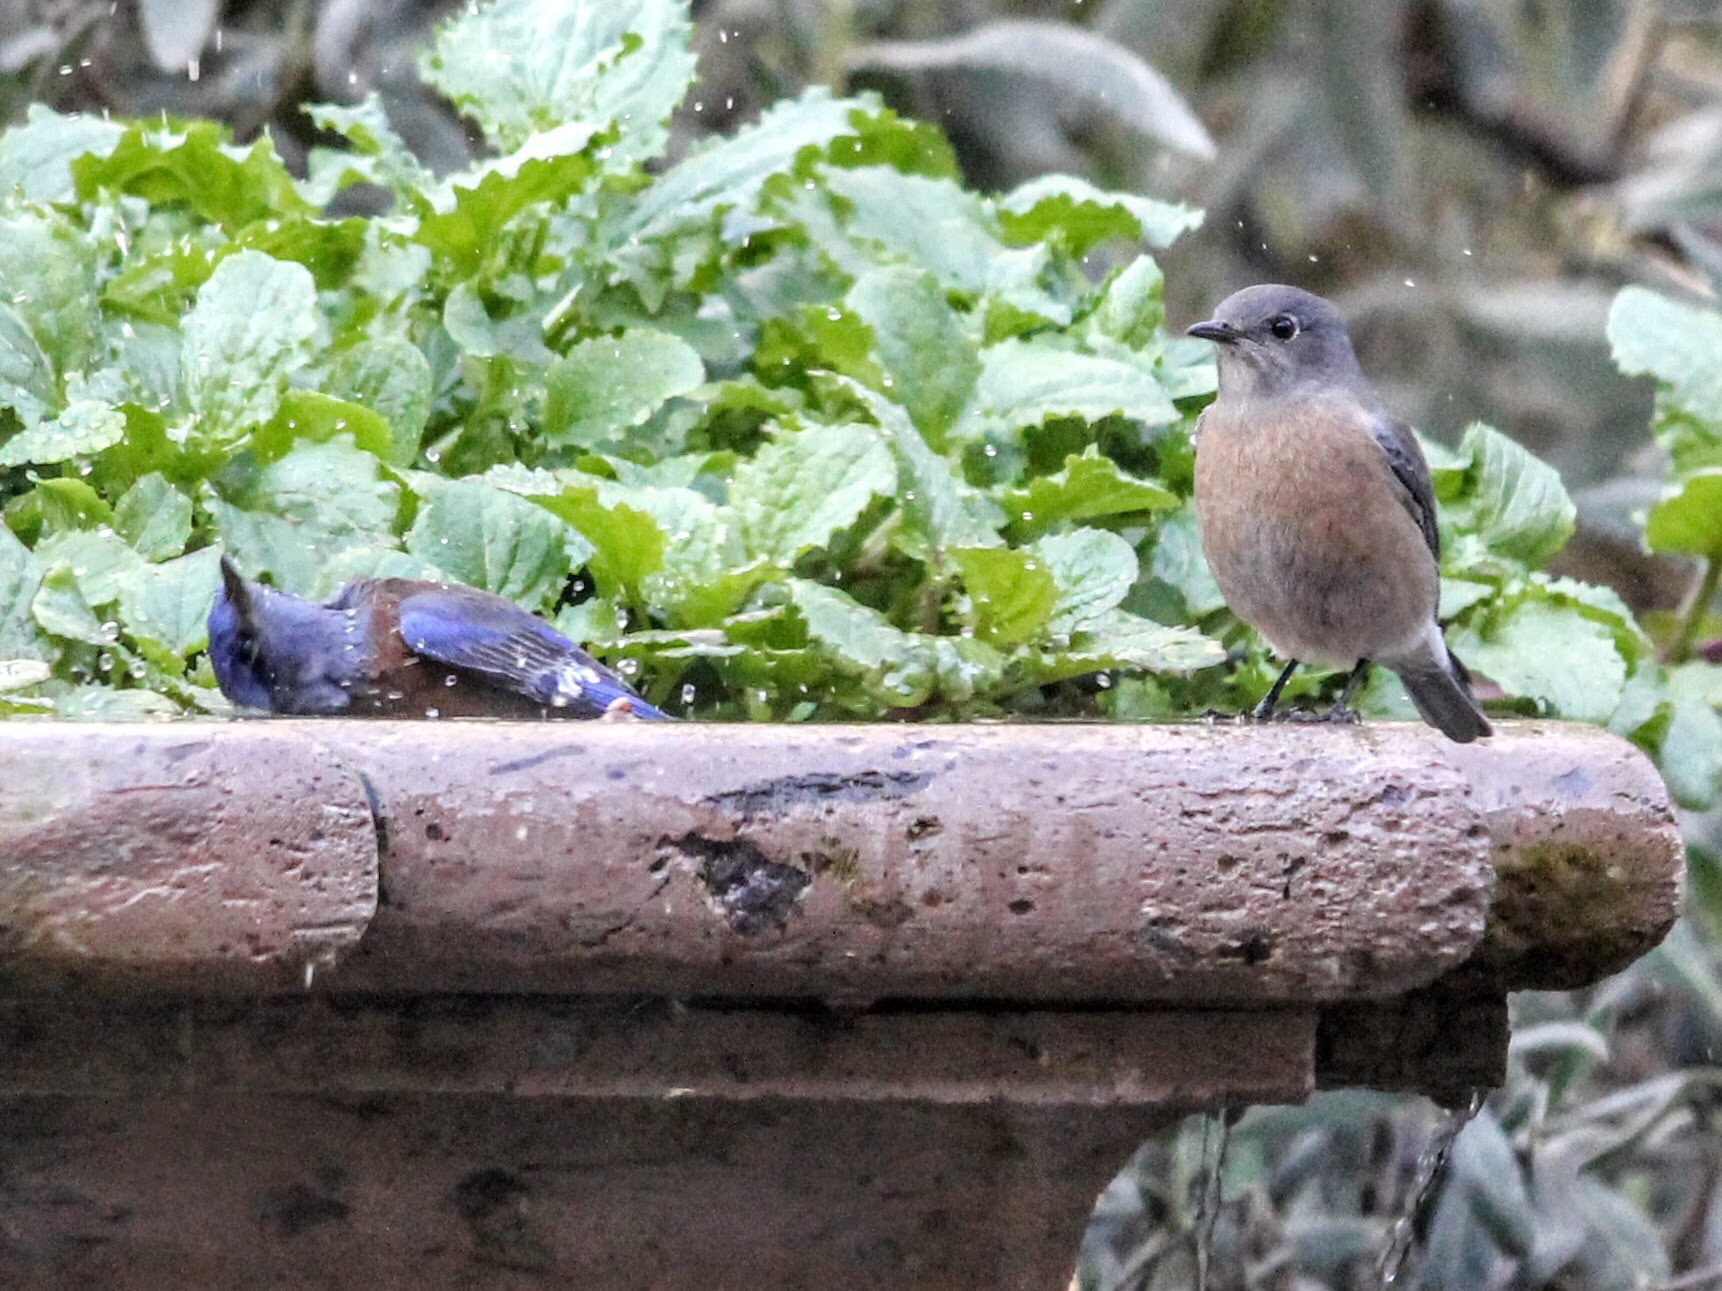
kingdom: Animalia
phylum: Chordata
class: Aves
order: Passeriformes
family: Turdidae
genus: Sialia
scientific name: Sialia mexicana
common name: Western bluebird
